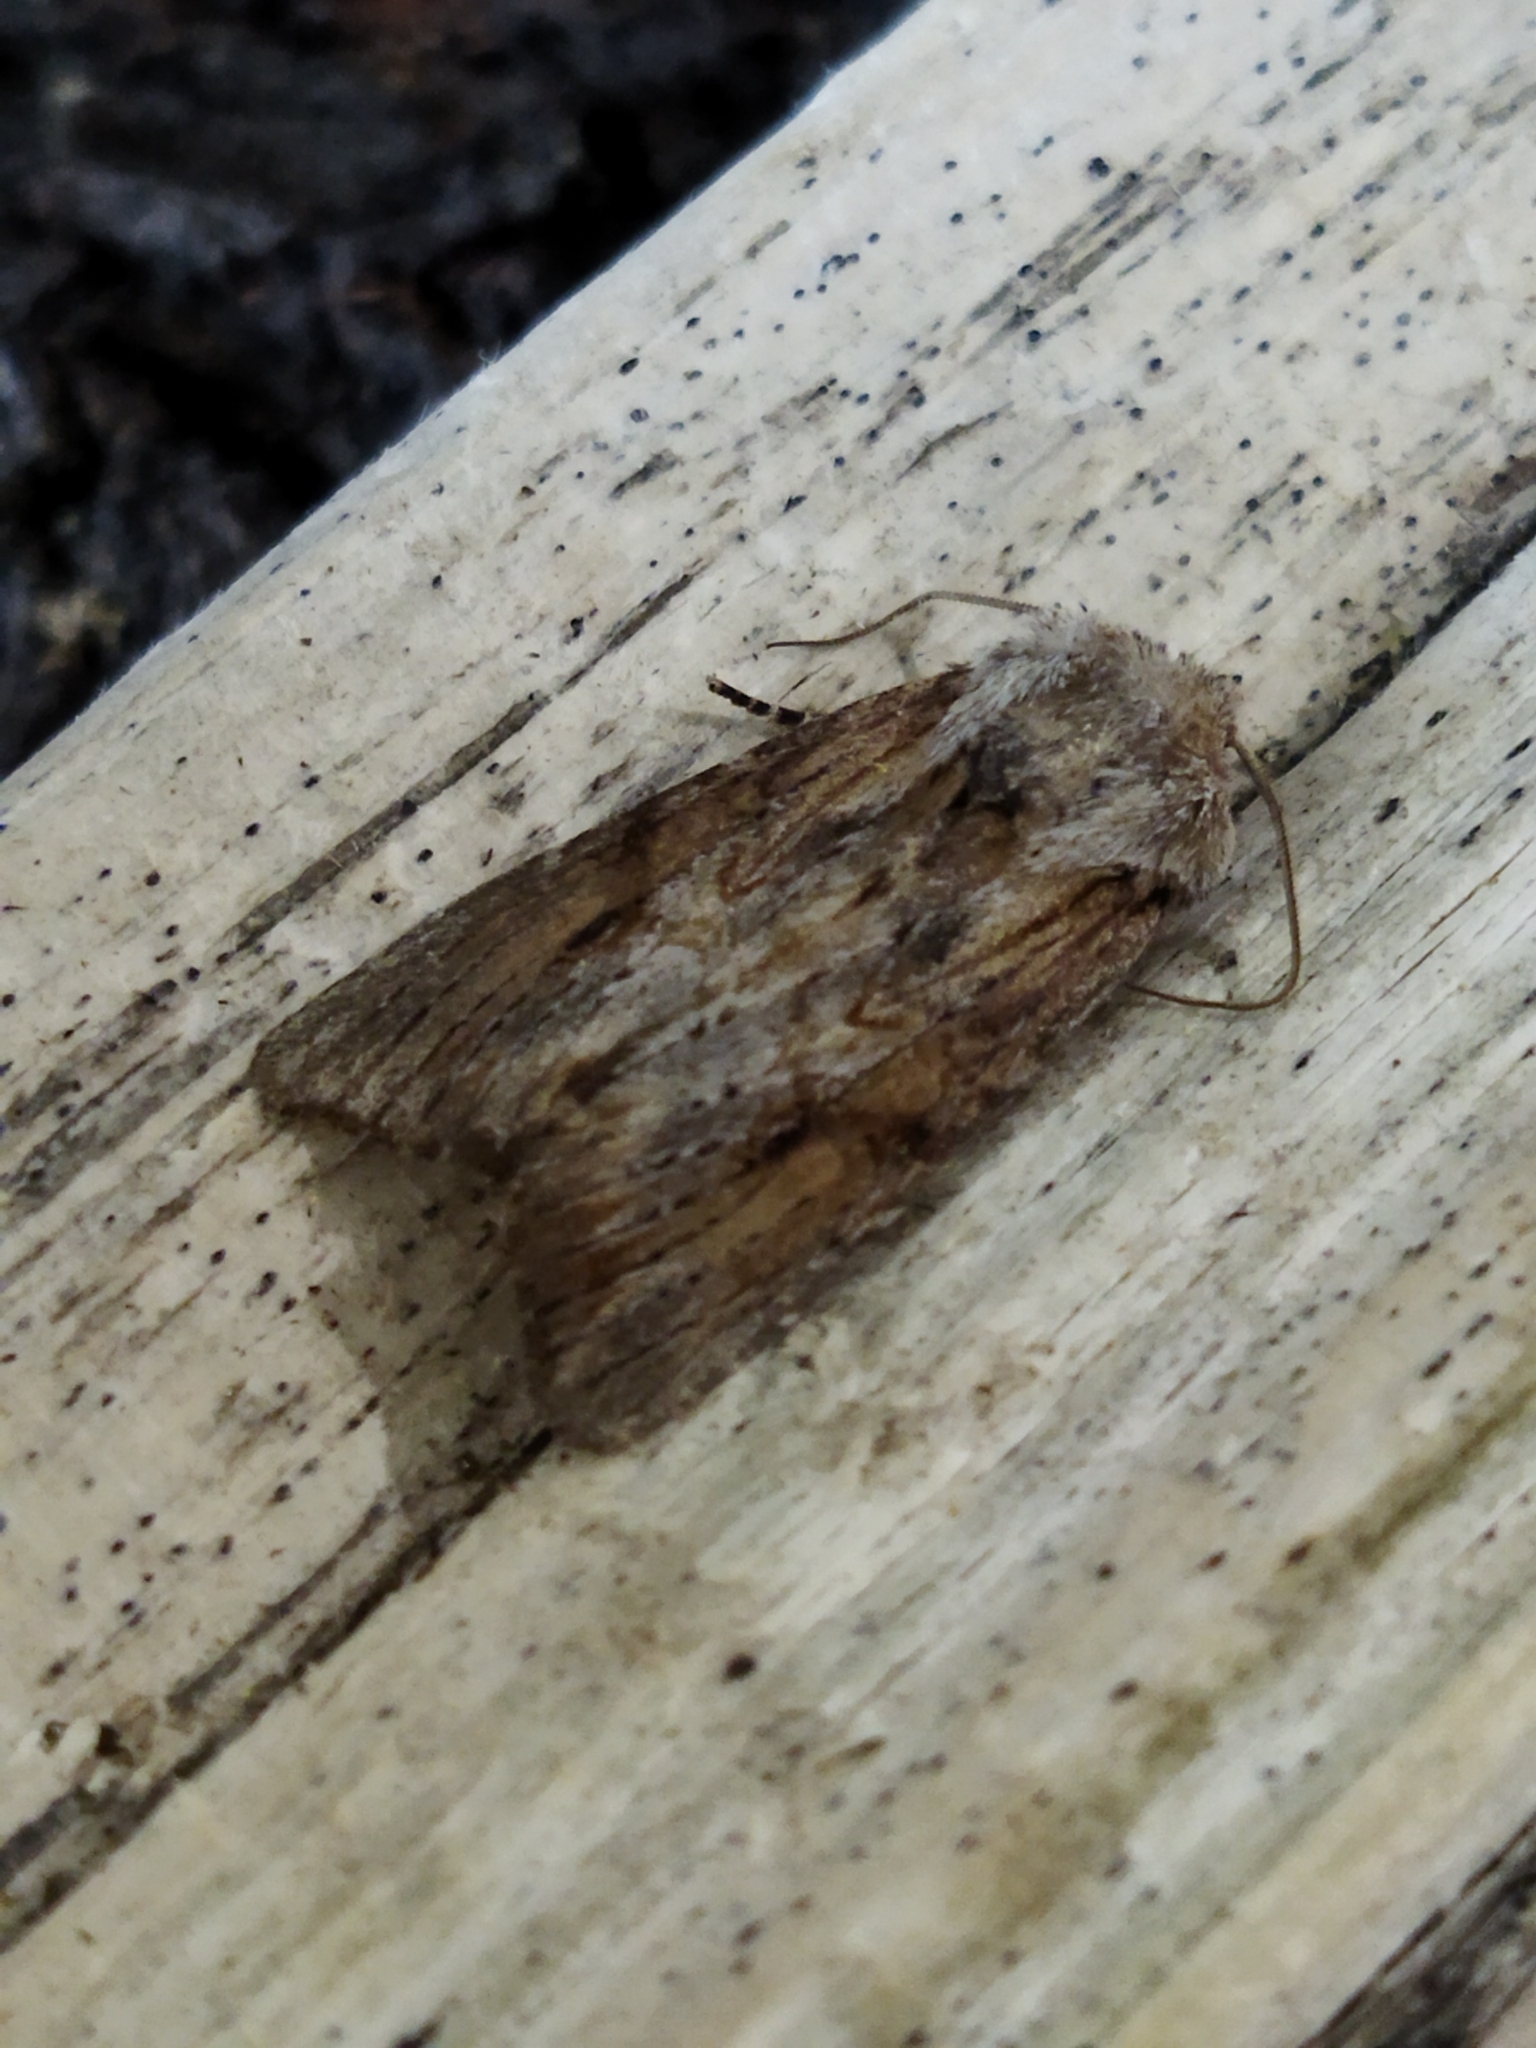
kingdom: Animalia
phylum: Arthropoda
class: Insecta
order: Lepidoptera
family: Noctuidae
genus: Egira
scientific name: Egira
